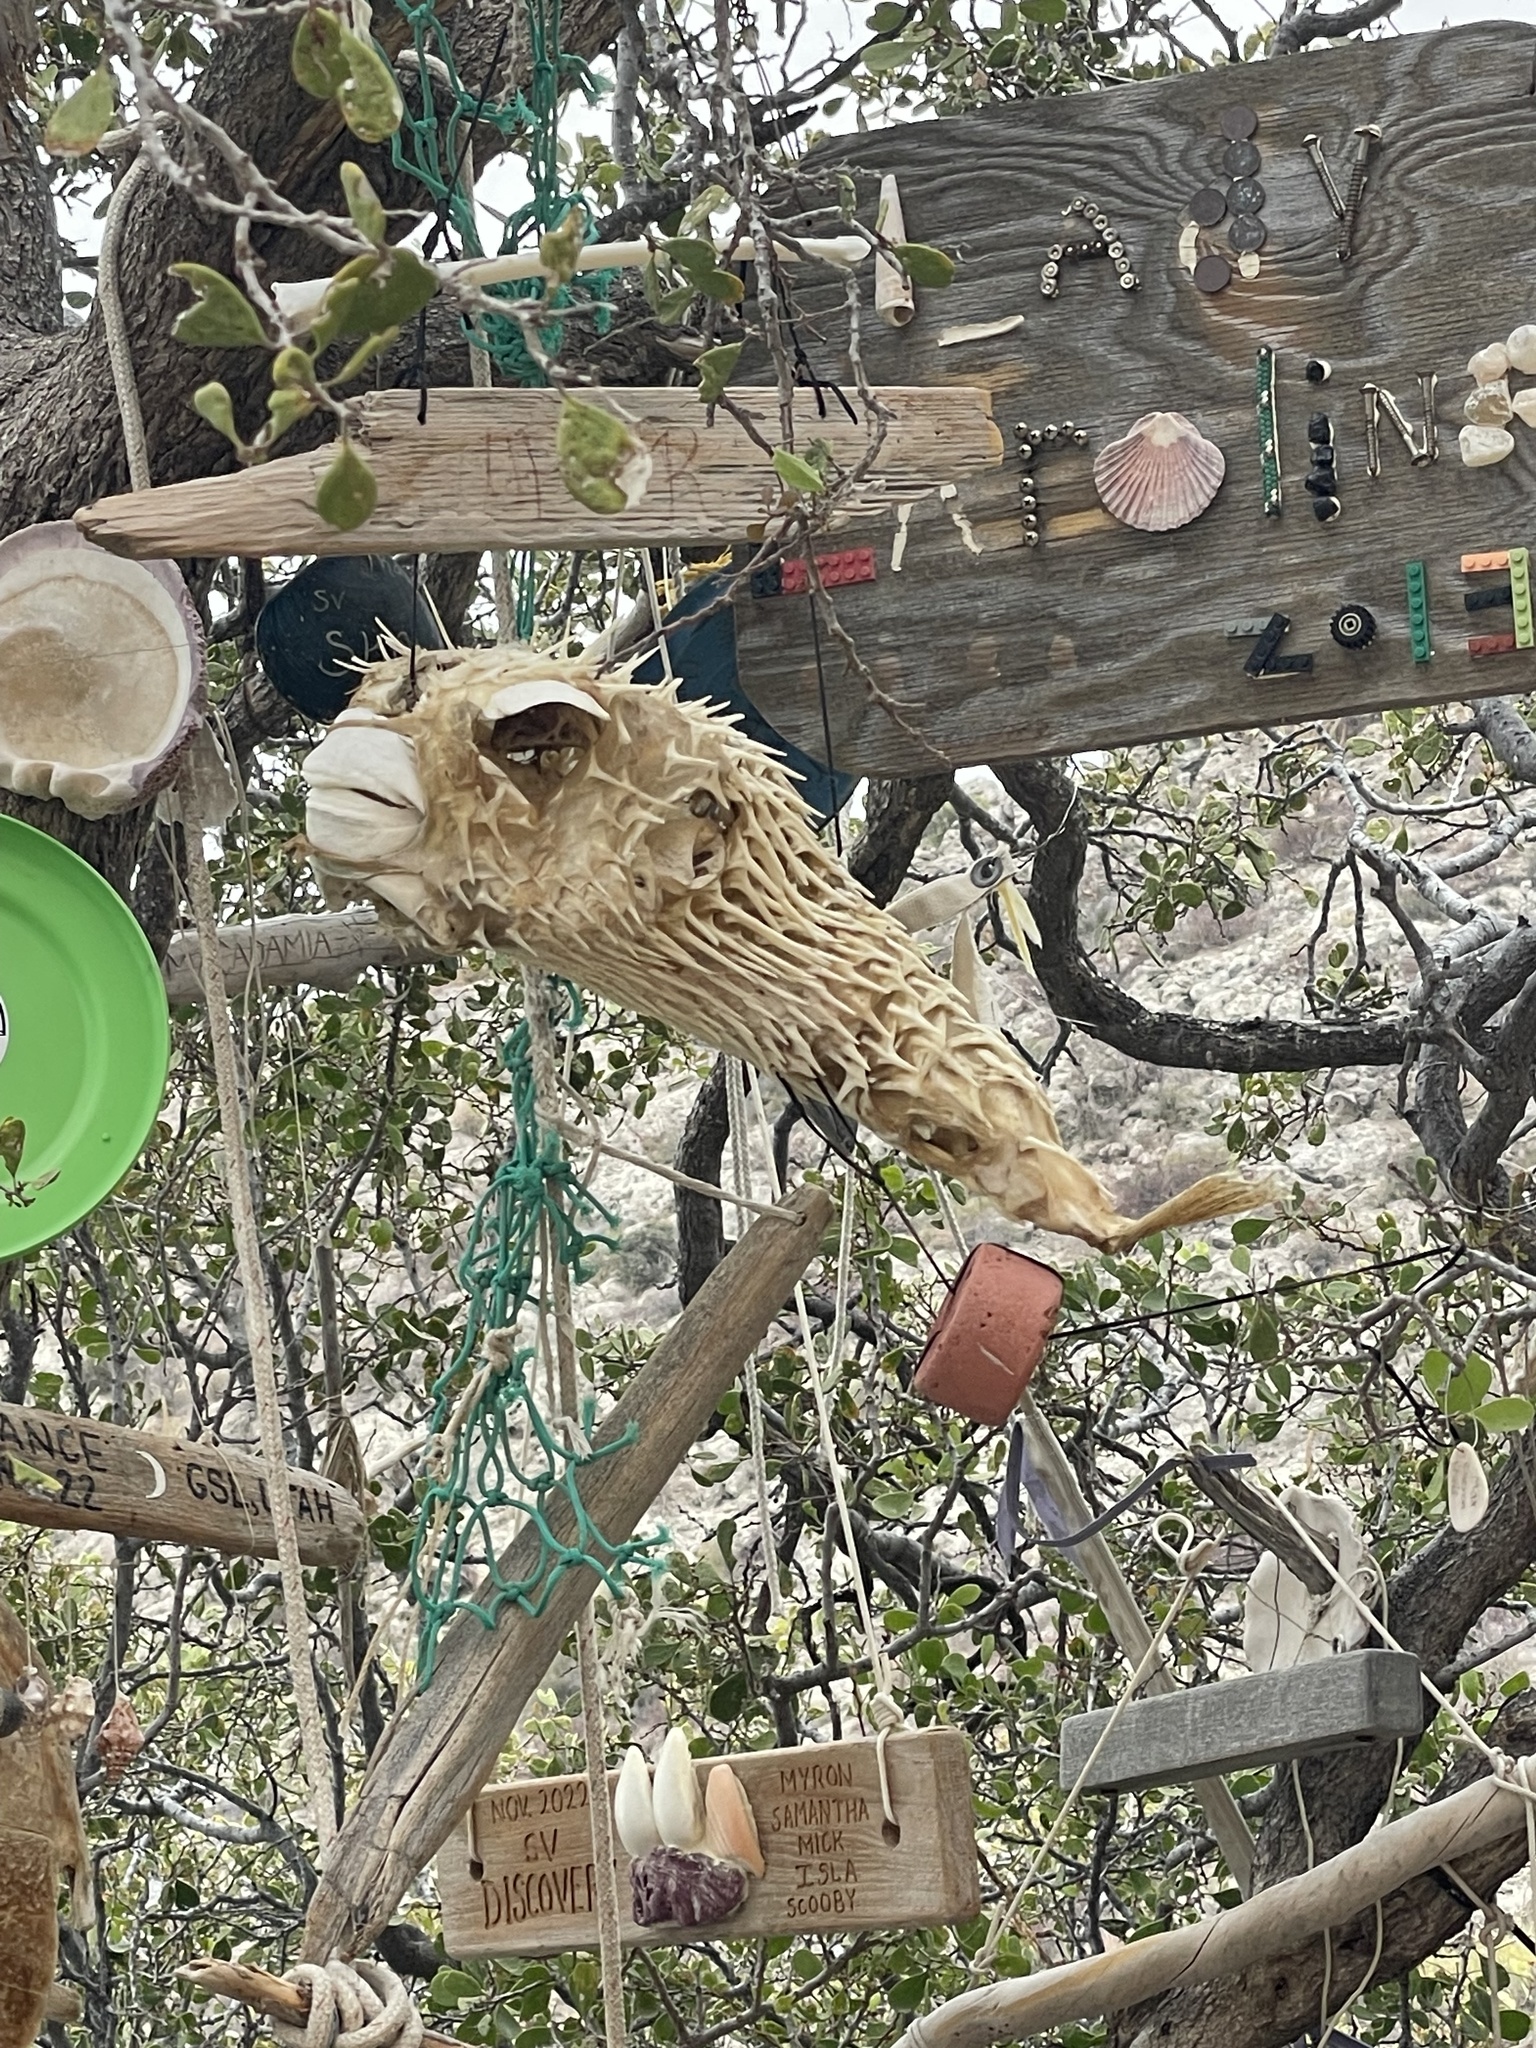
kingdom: Animalia
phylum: Chordata
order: Tetraodontiformes
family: Diodontidae
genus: Diodon
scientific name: Diodon holocanthus
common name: Balloonfish
